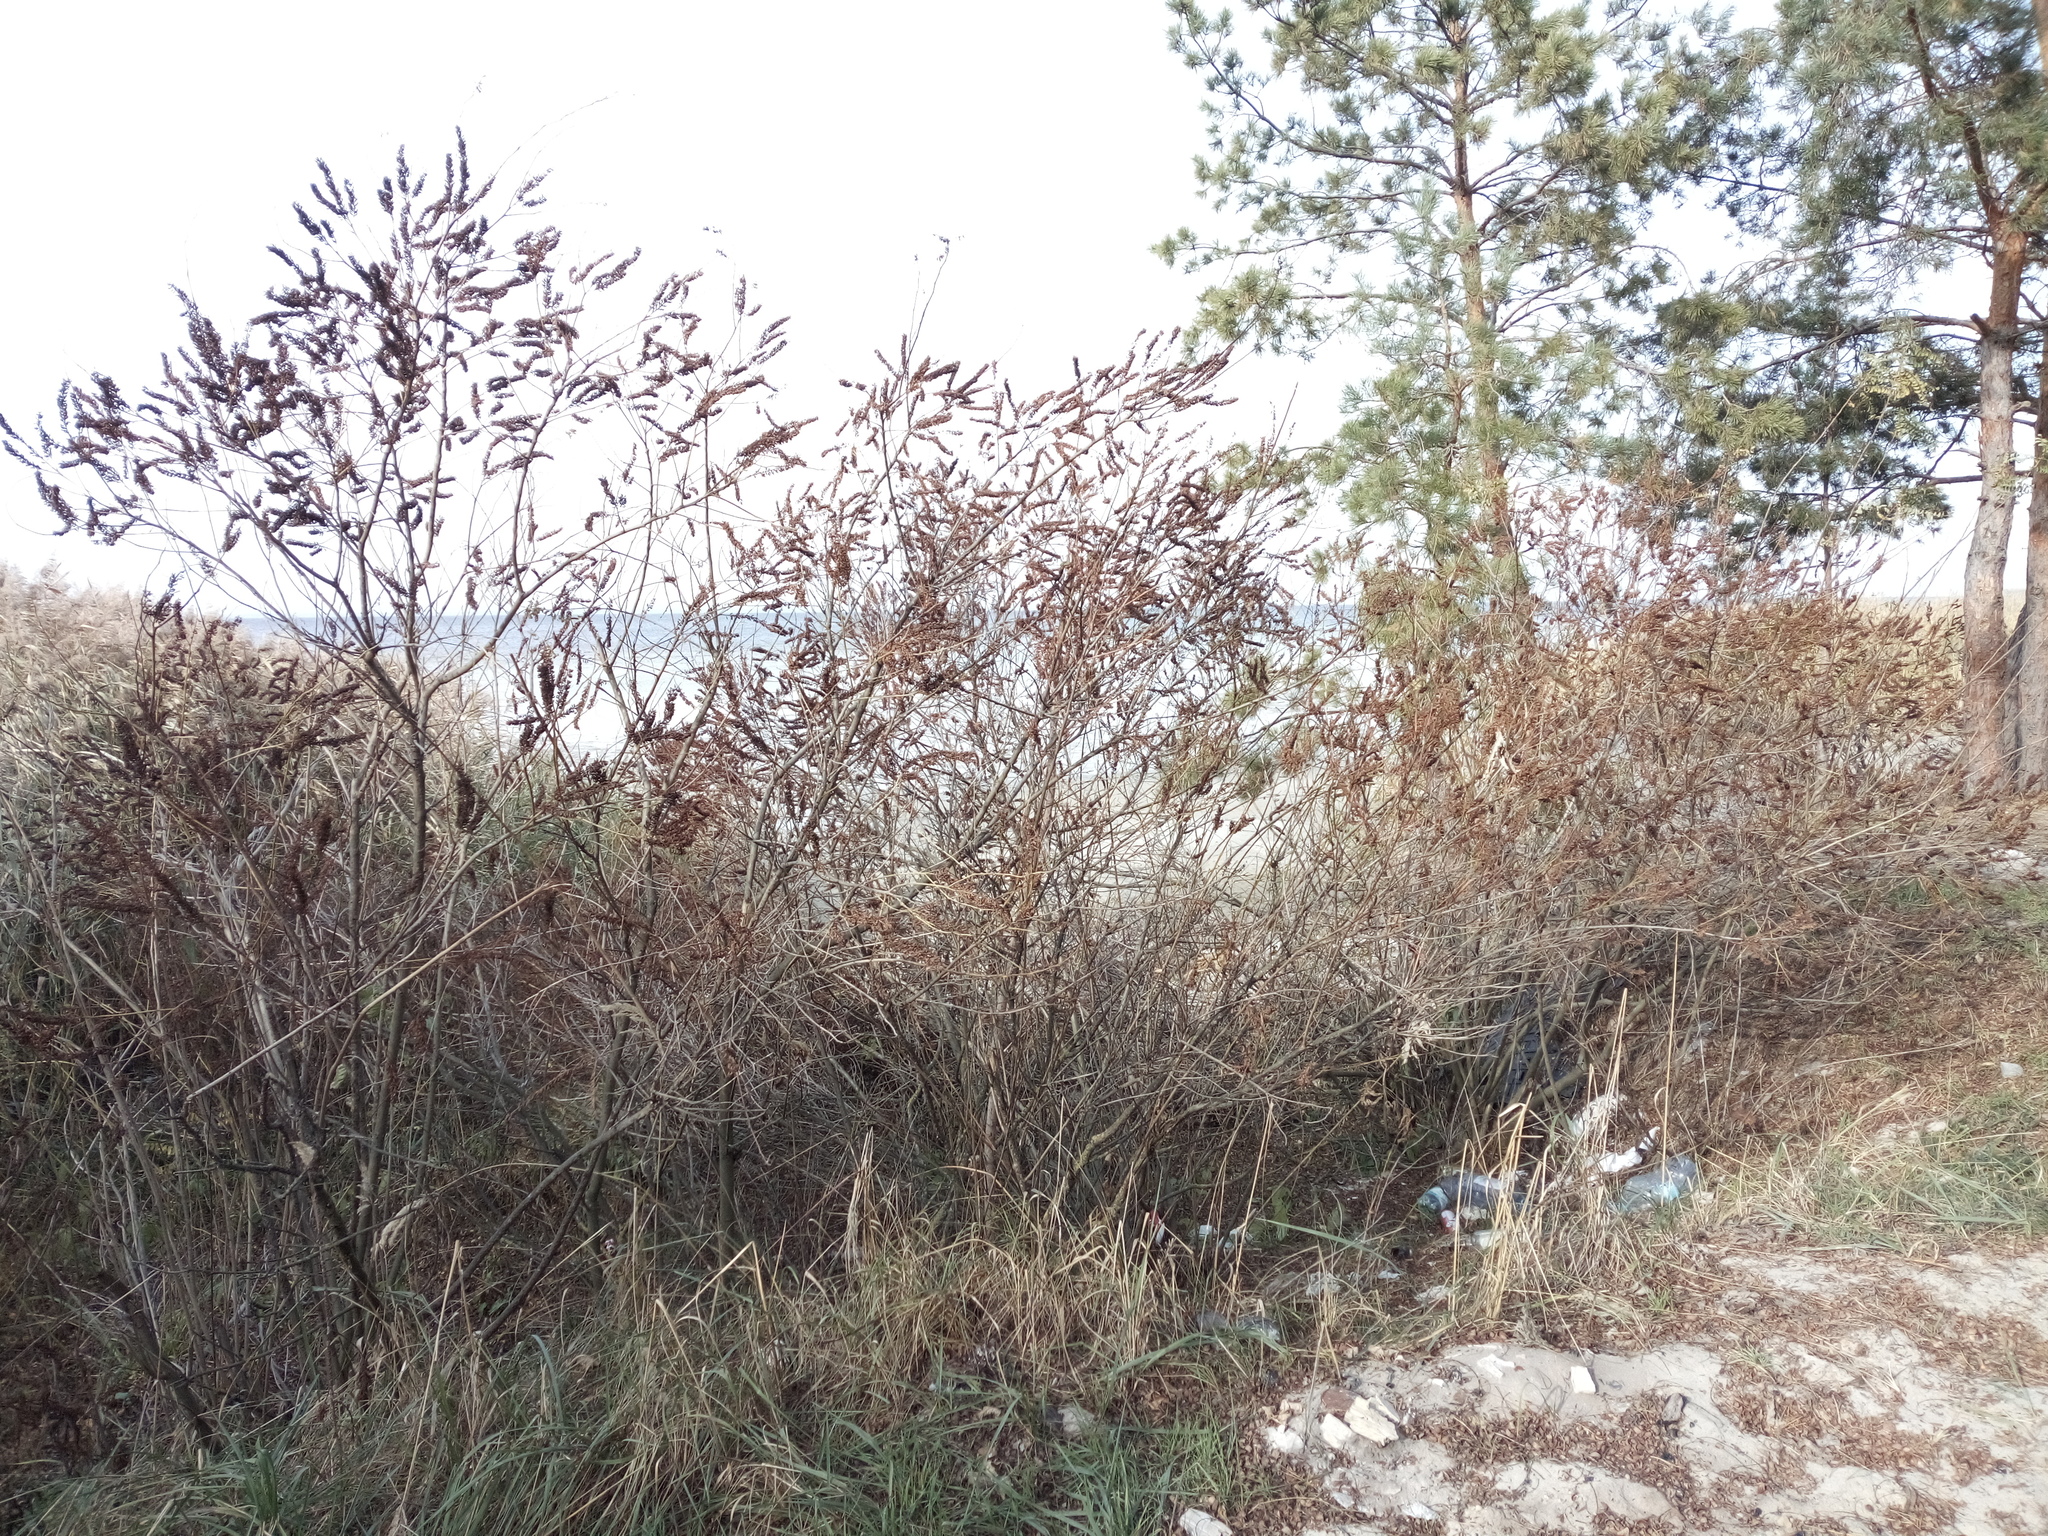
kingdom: Plantae
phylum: Tracheophyta
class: Magnoliopsida
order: Fabales
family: Fabaceae
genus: Amorpha
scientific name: Amorpha fruticosa
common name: False indigo
